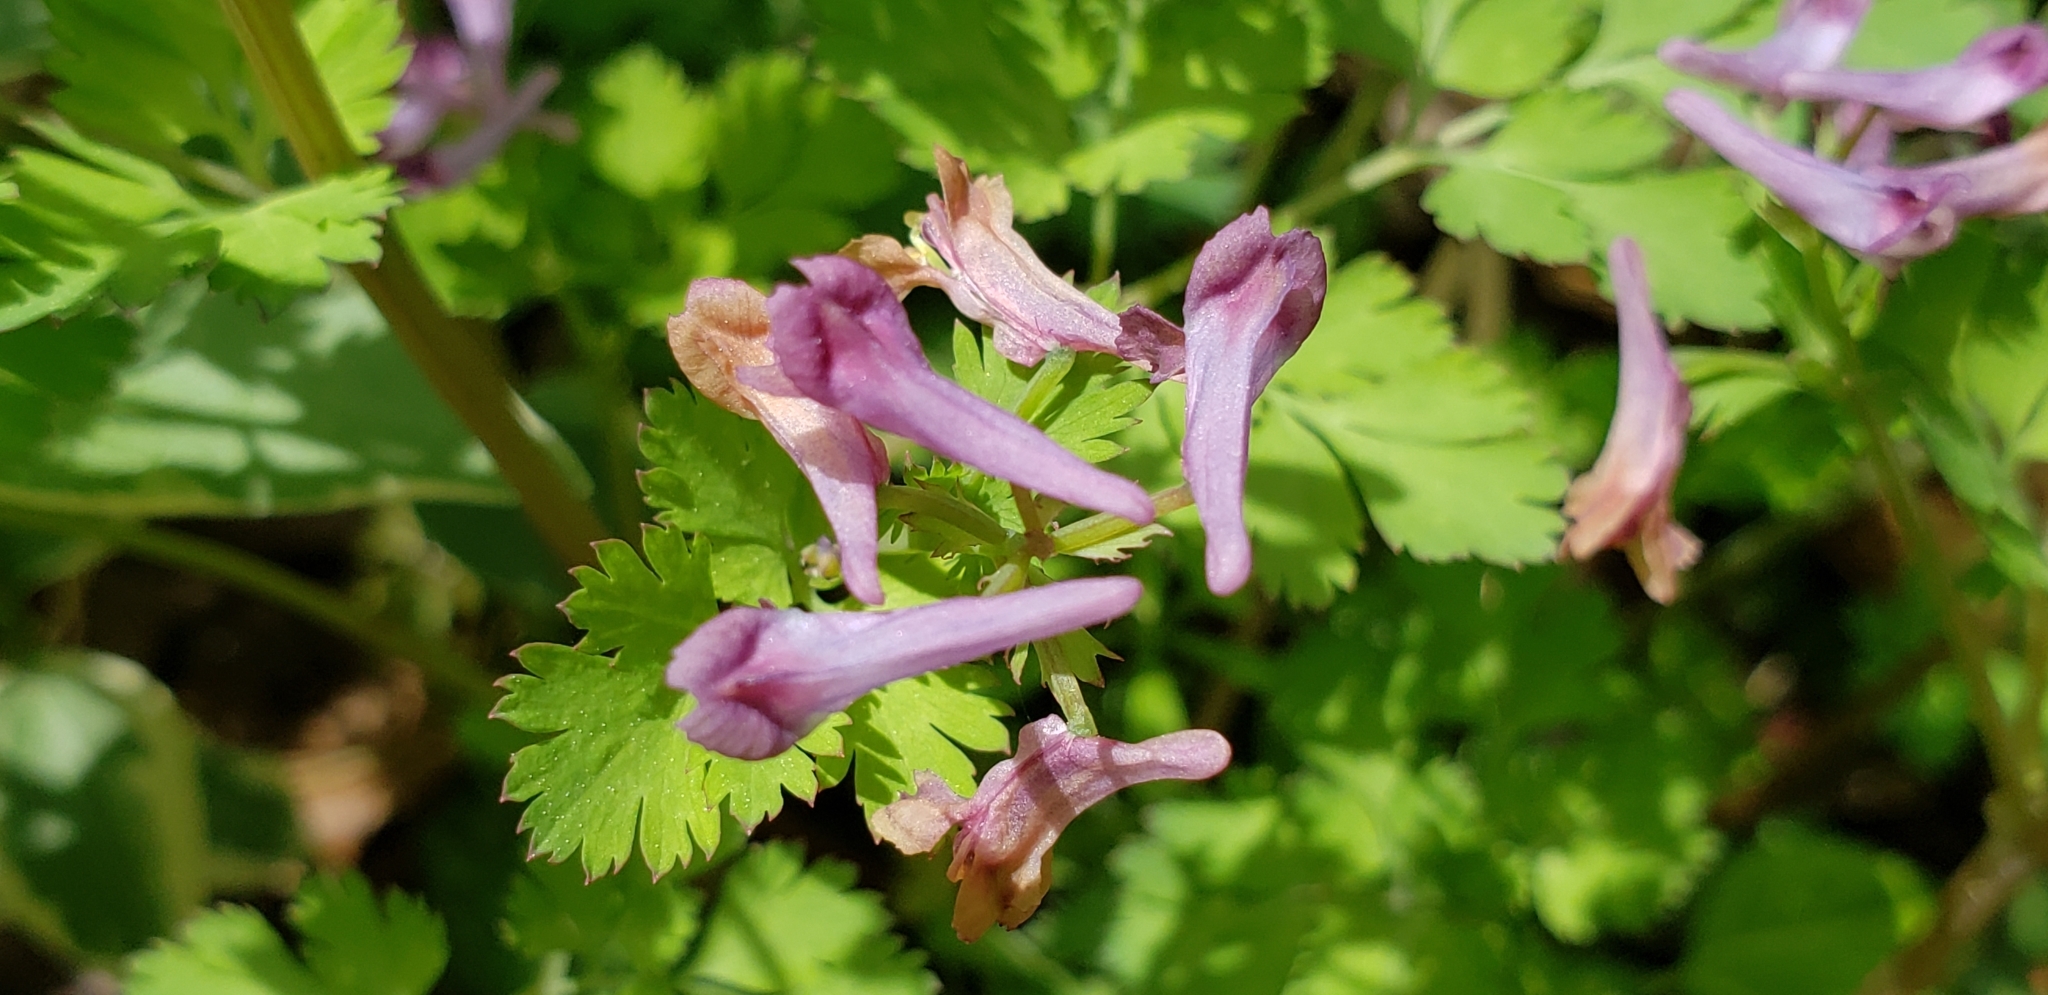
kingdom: Plantae
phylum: Tracheophyta
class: Magnoliopsida
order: Ranunculales
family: Papaveraceae
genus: Corydalis
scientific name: Corydalis incisa
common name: Incised fumewort
